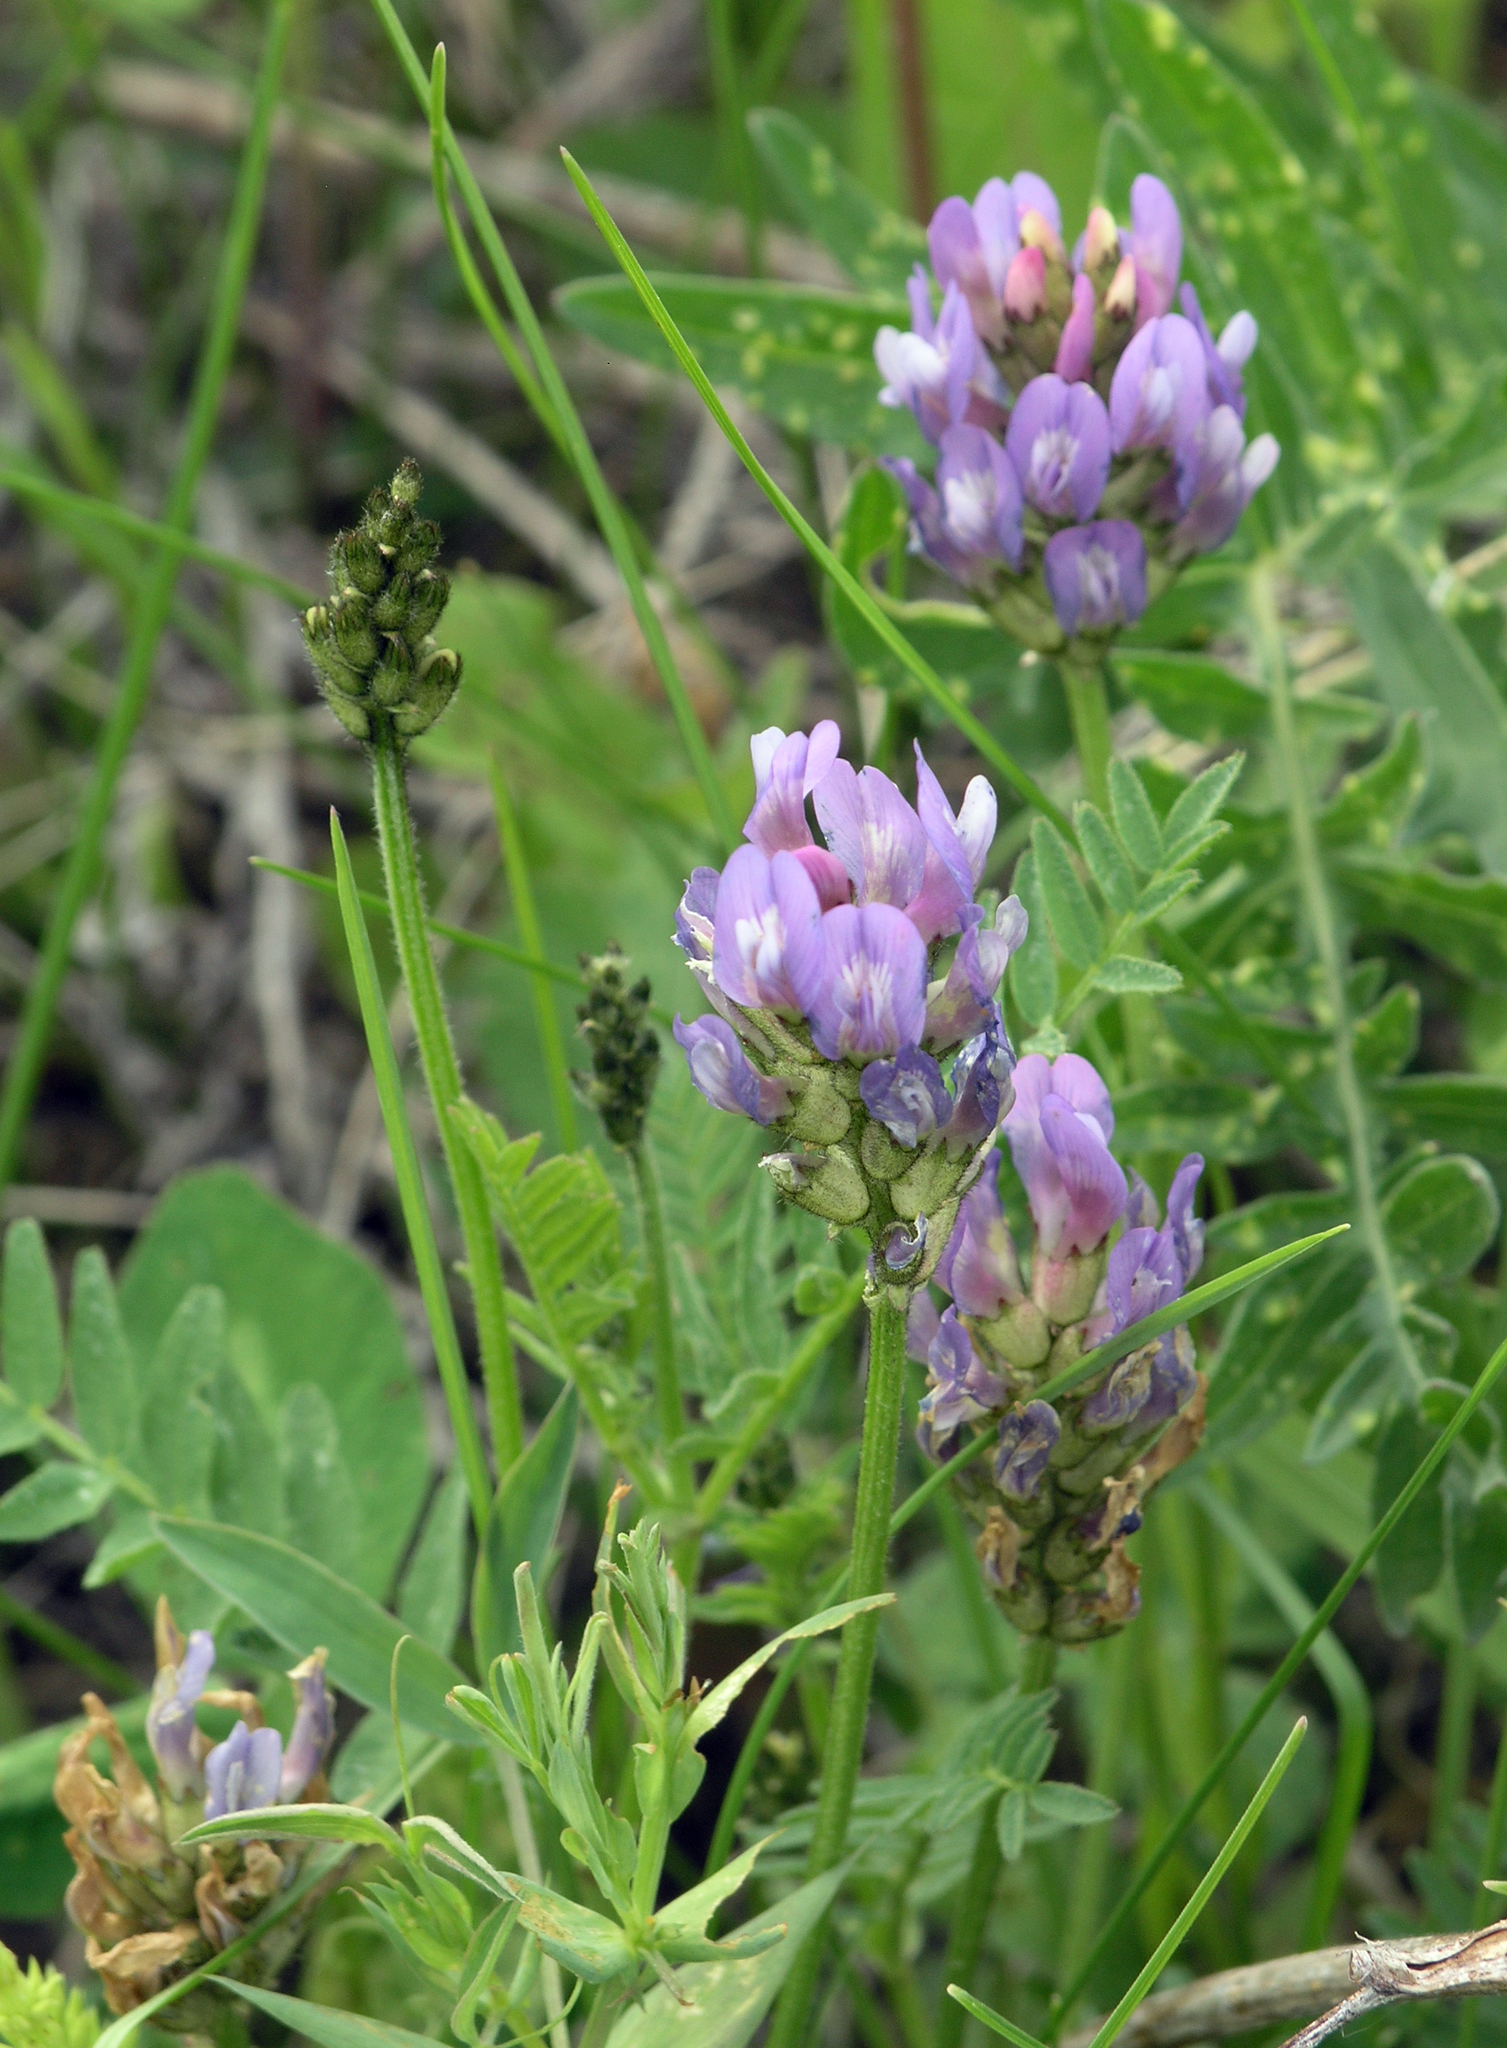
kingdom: Plantae
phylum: Tracheophyta
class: Magnoliopsida
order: Fabales
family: Fabaceae
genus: Astragalus
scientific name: Astragalus danicus
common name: Purple milk-vetch
